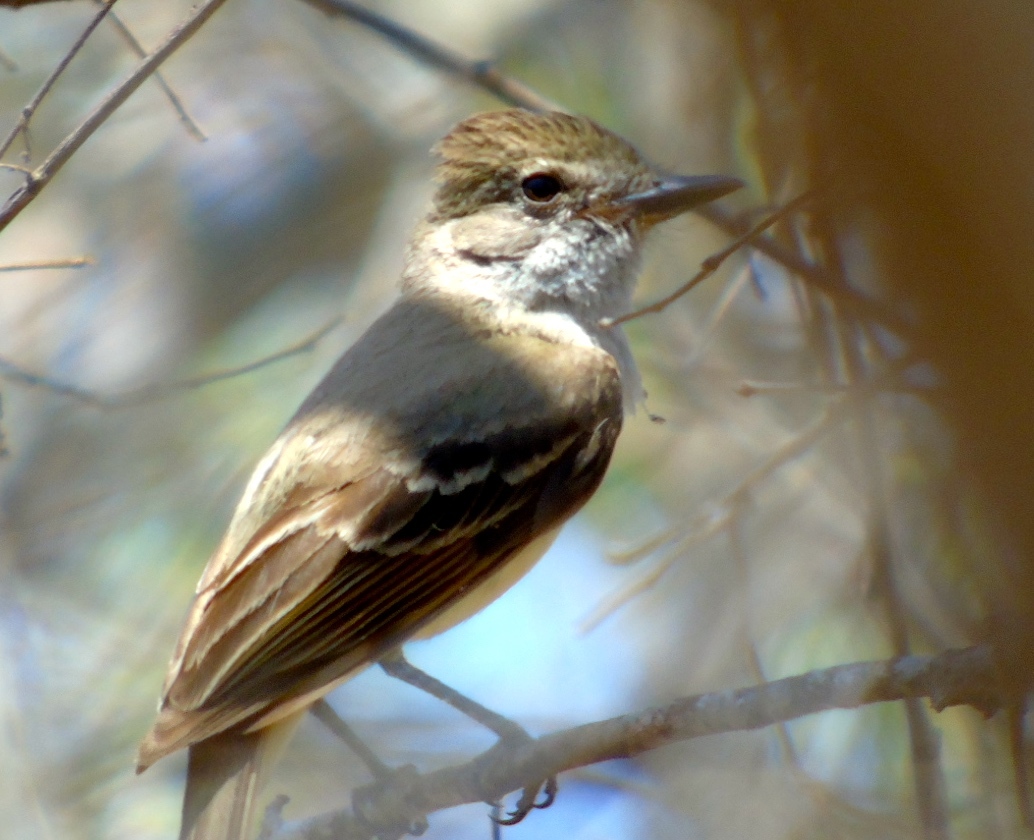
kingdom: Animalia
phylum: Chordata
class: Aves
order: Passeriformes
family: Tyrannidae
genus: Myiarchus
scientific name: Myiarchus
